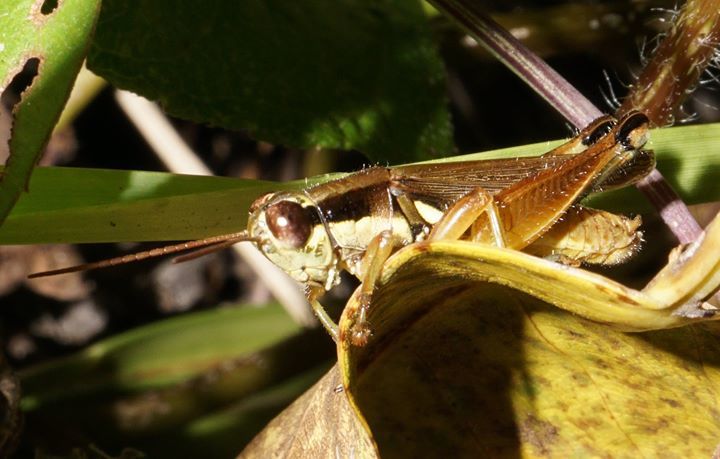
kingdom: Animalia
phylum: Arthropoda
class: Insecta
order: Orthoptera
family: Acrididae
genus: Paroxya
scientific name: Paroxya atlantica
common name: Atlantic grasshopper
